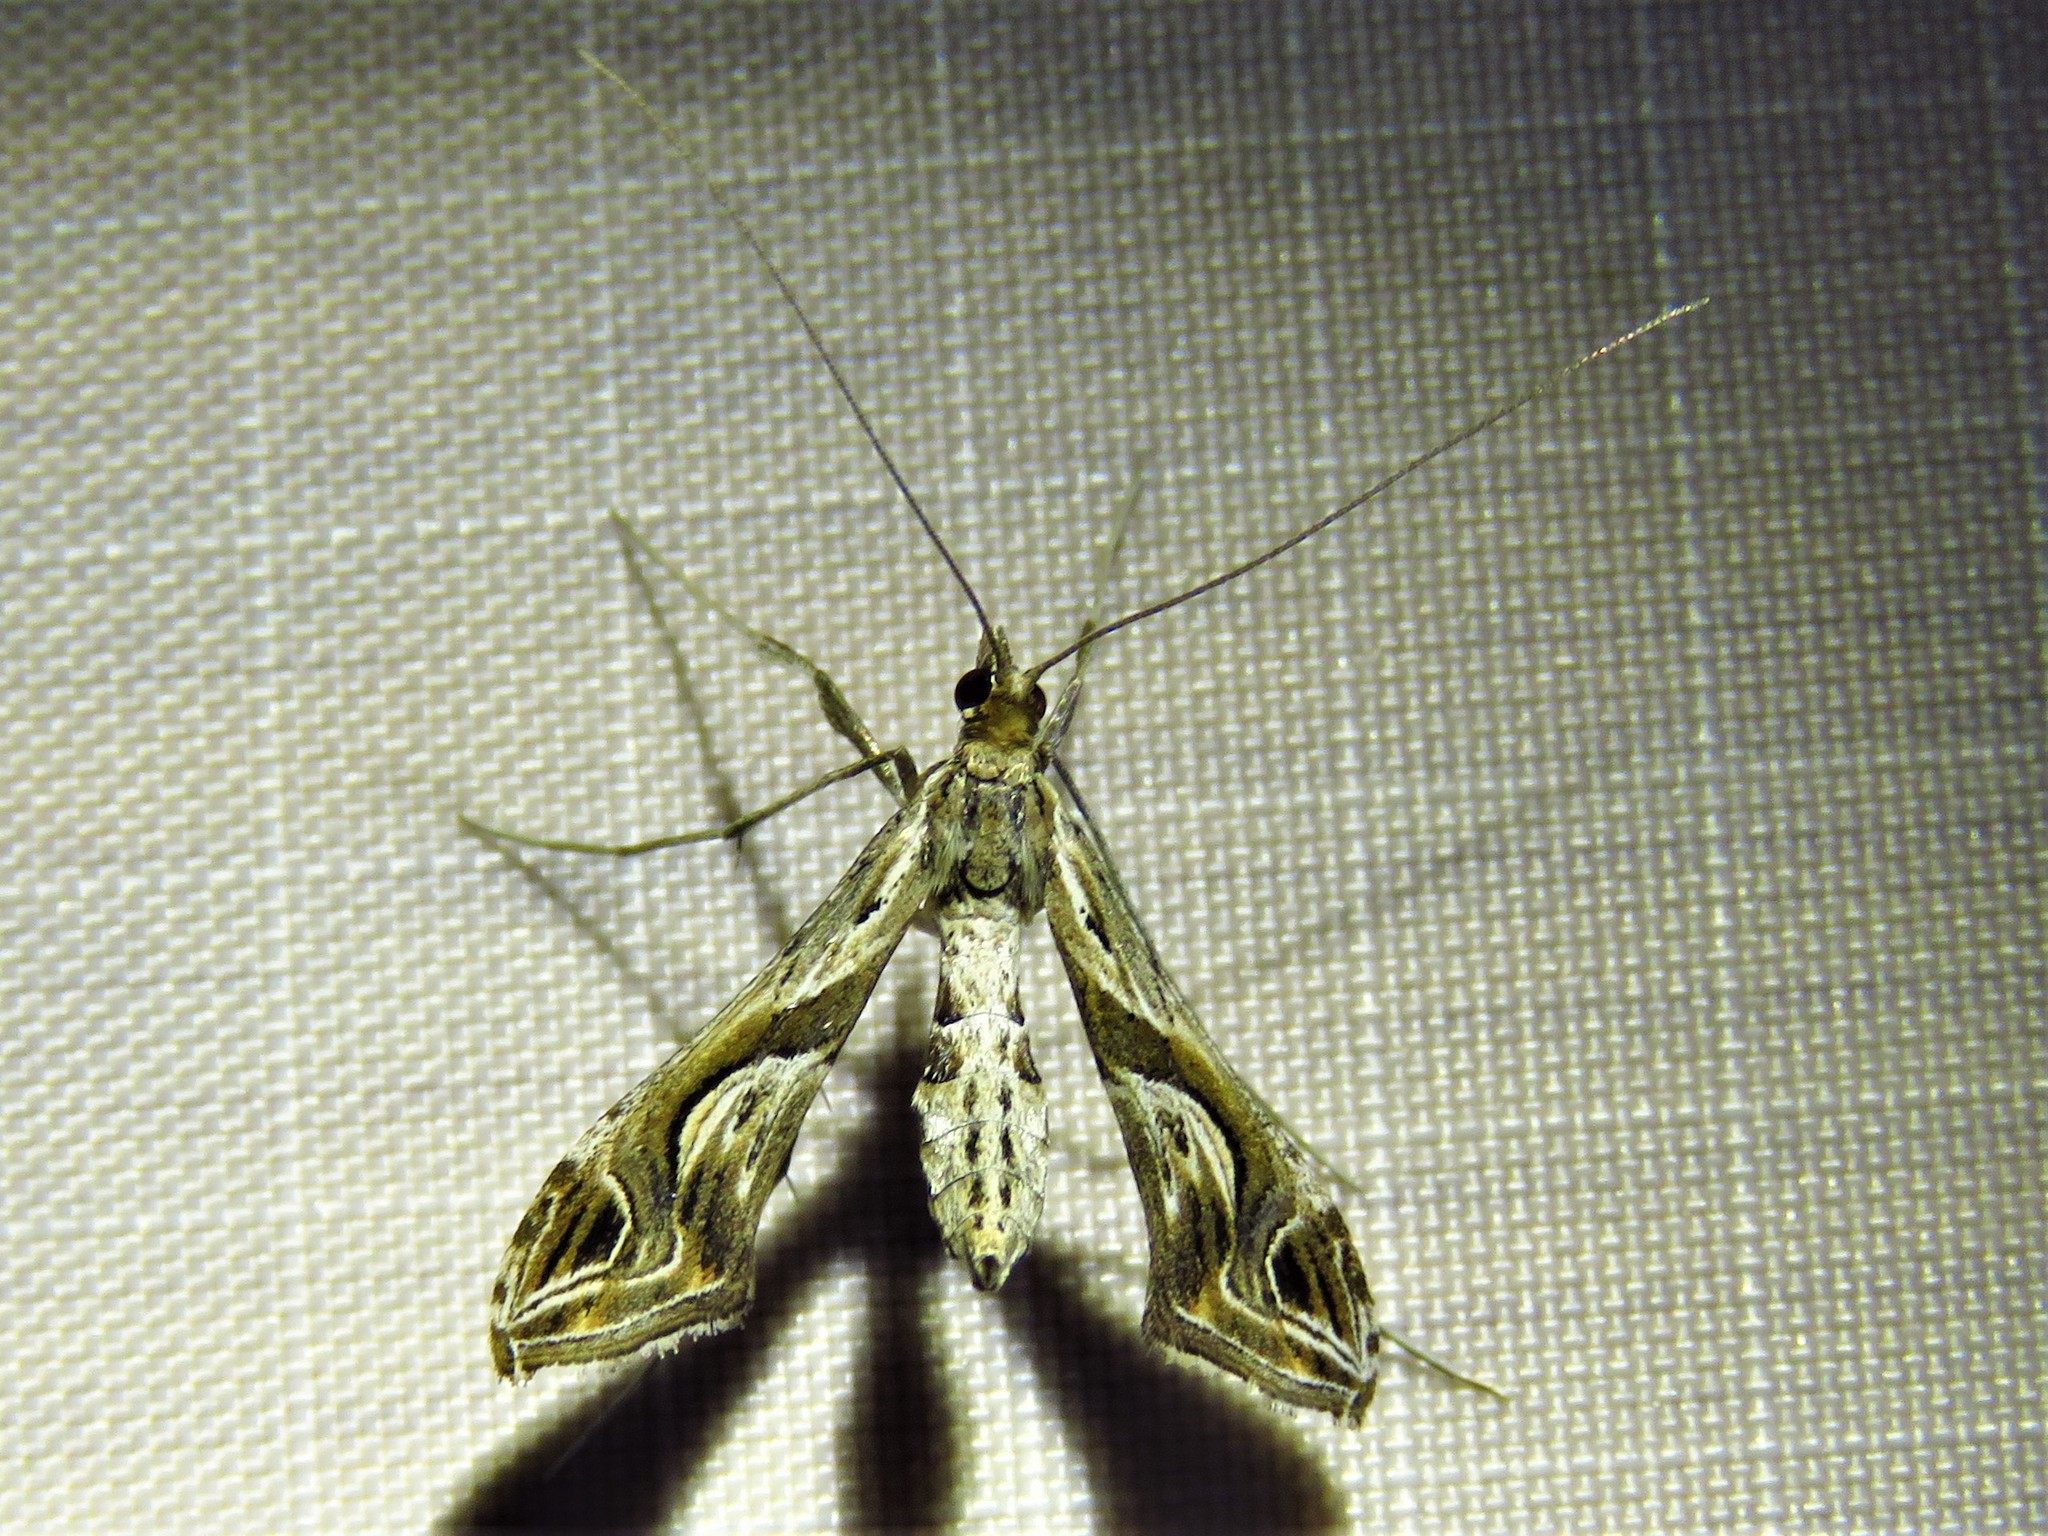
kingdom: Animalia
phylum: Arthropoda
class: Insecta
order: Lepidoptera
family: Crambidae
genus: Lineodes
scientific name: Lineodes integra
